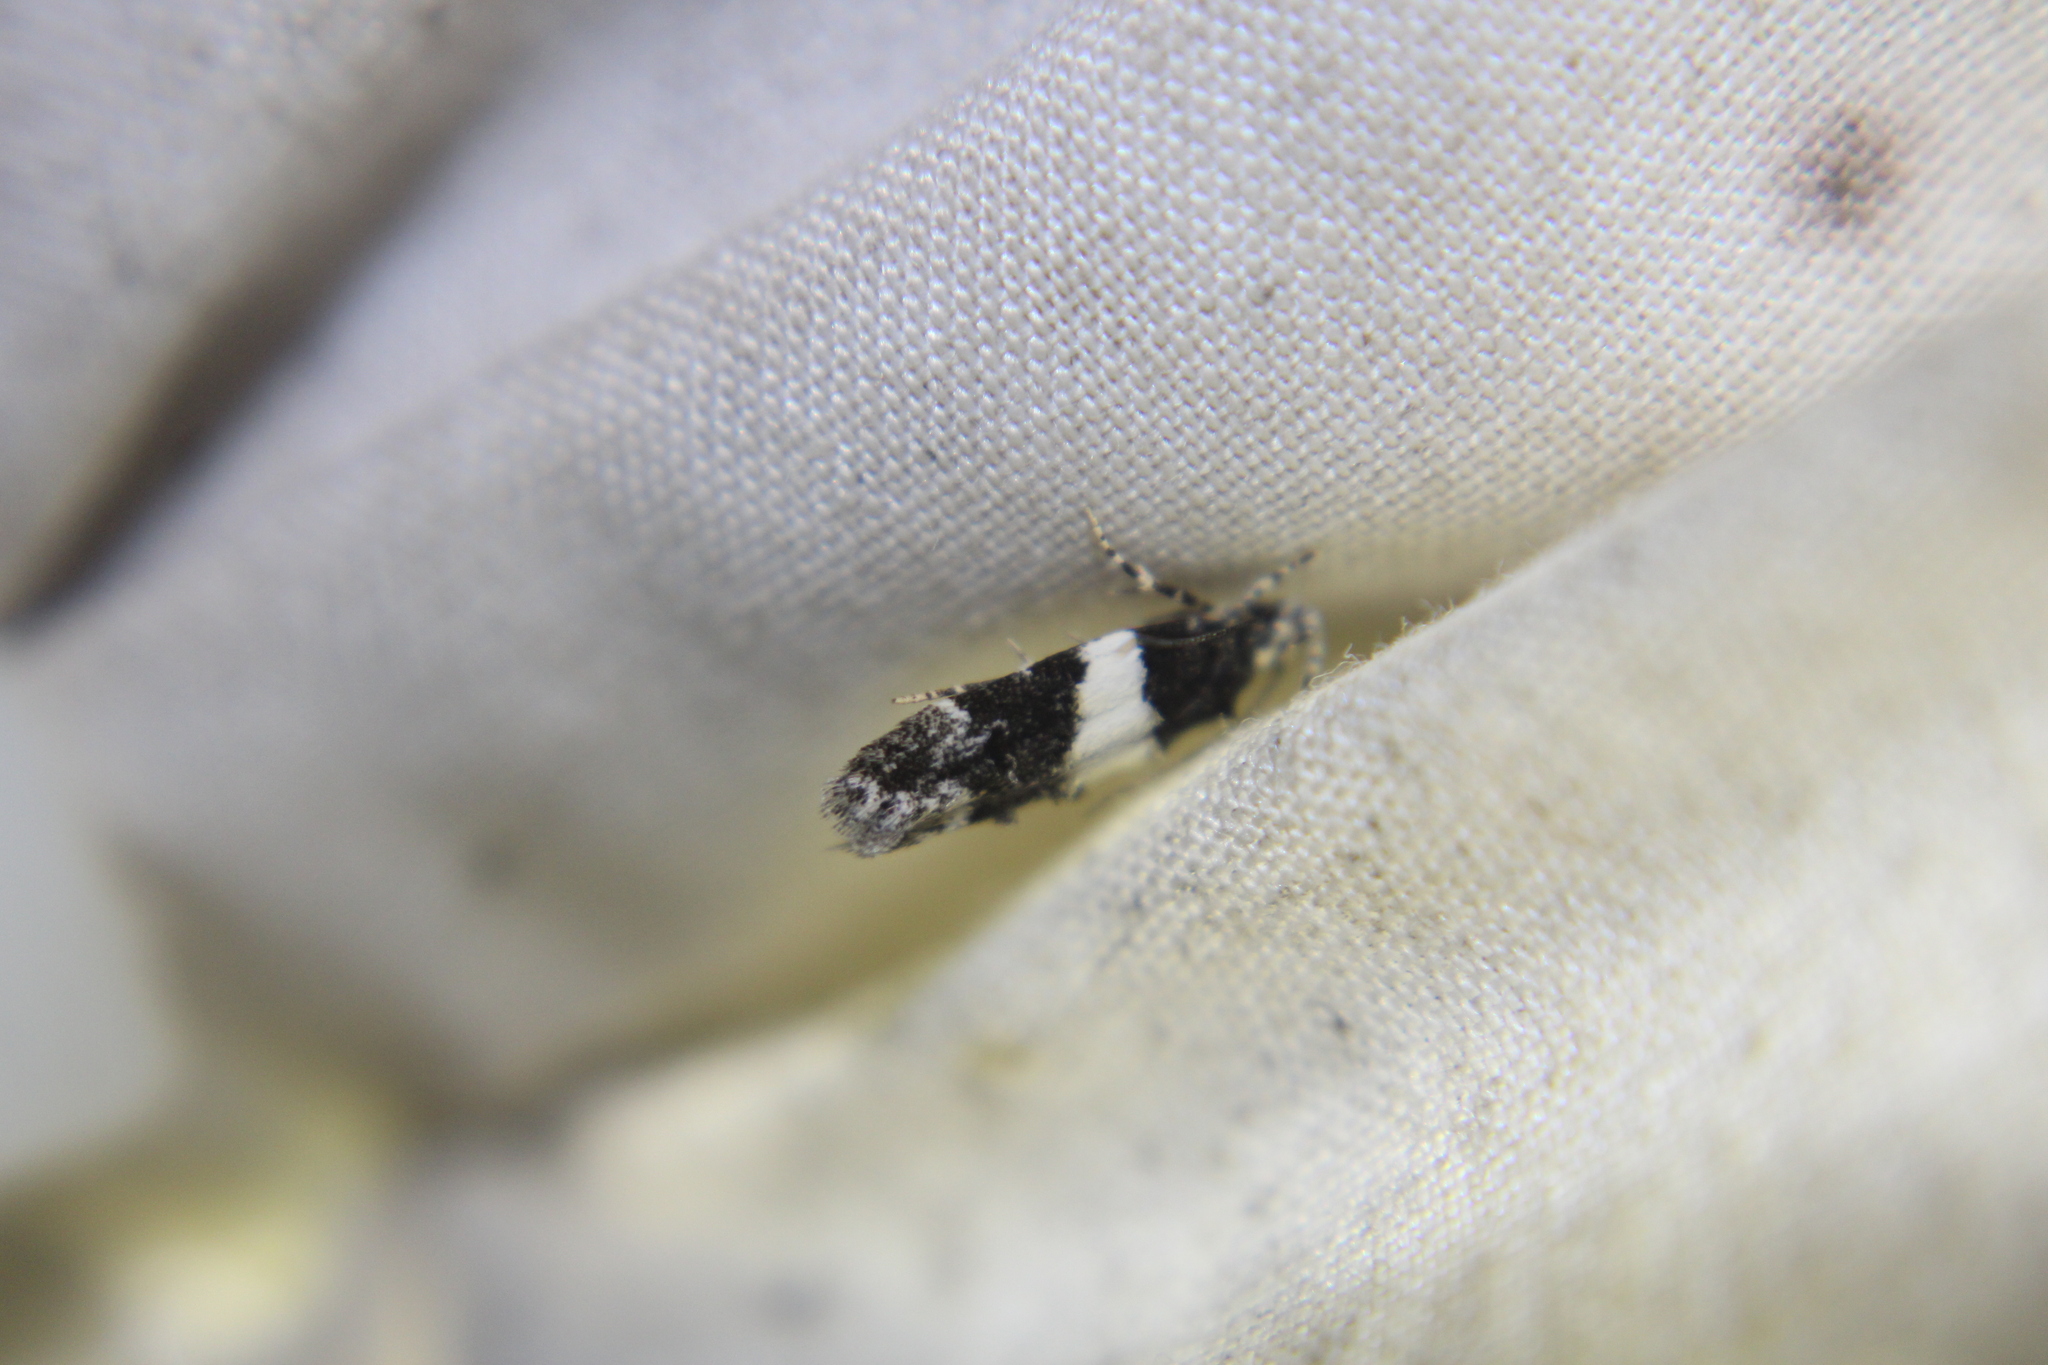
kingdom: Animalia
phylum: Arthropoda
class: Insecta
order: Lepidoptera
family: Gelechiidae
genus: Pubitelphusa
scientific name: Pubitelphusa latifasciella
